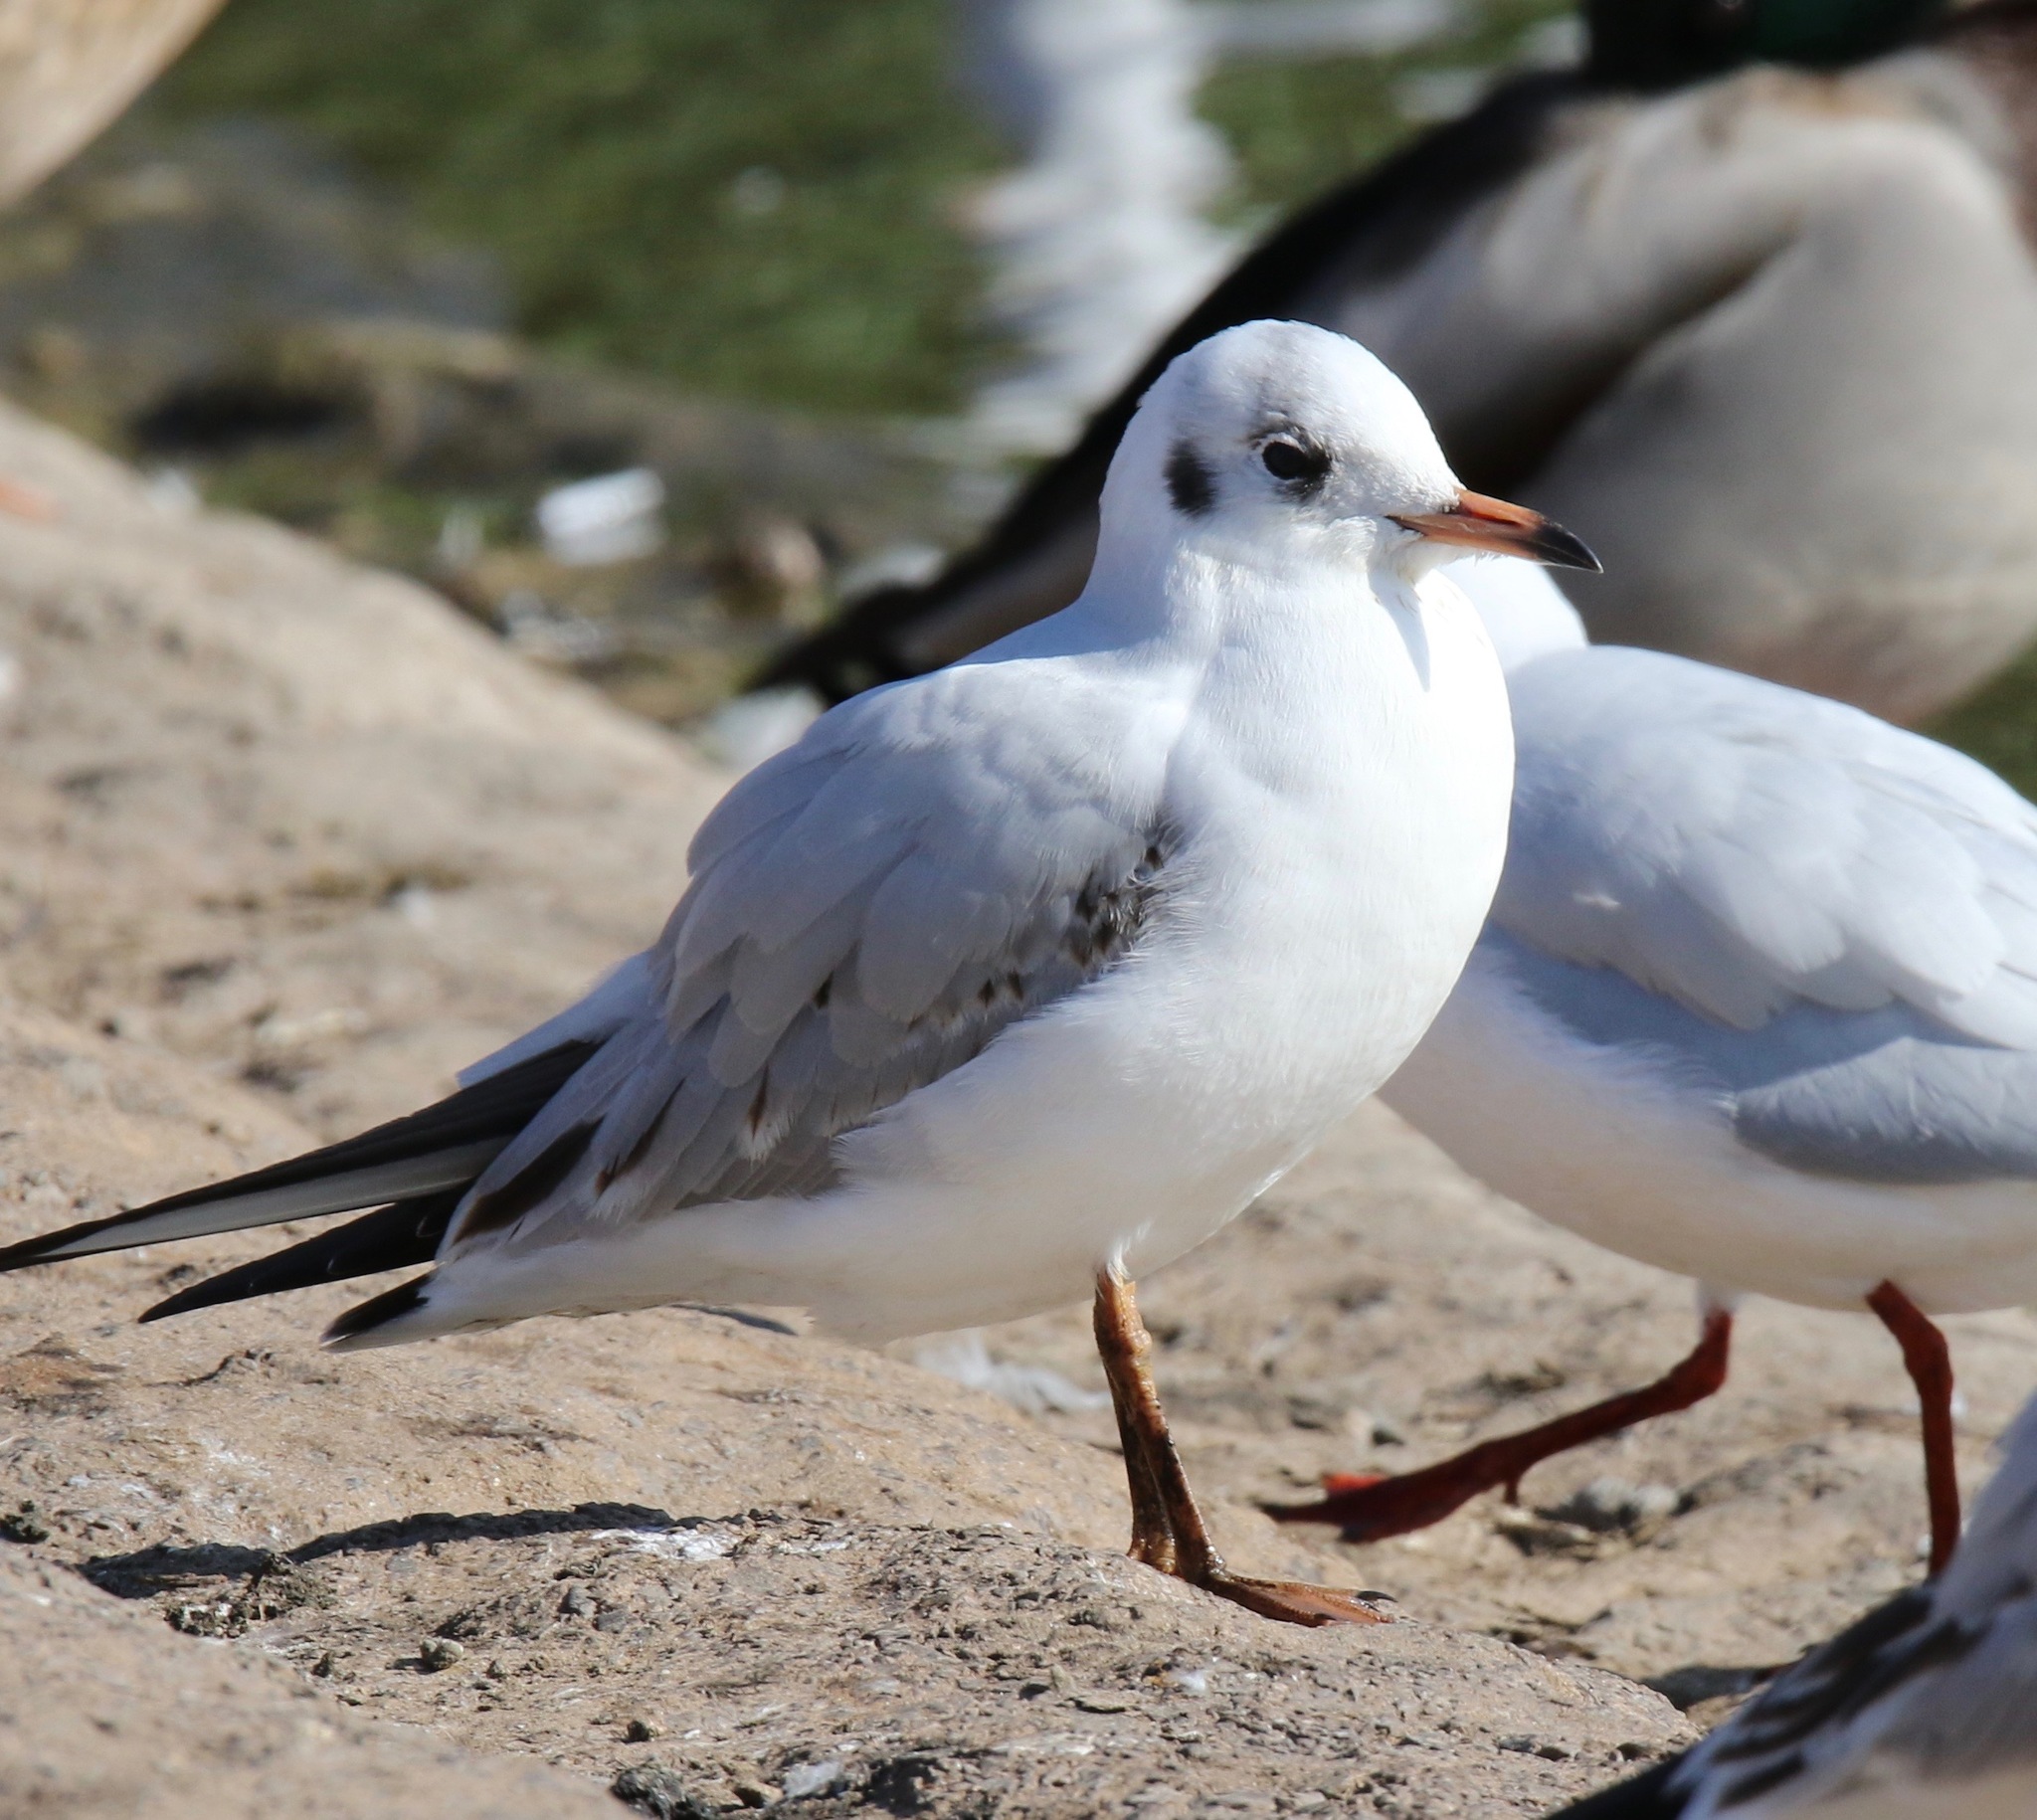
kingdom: Animalia
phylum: Chordata
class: Aves
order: Charadriiformes
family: Laridae
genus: Chroicocephalus
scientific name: Chroicocephalus ridibundus
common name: Black-headed gull
